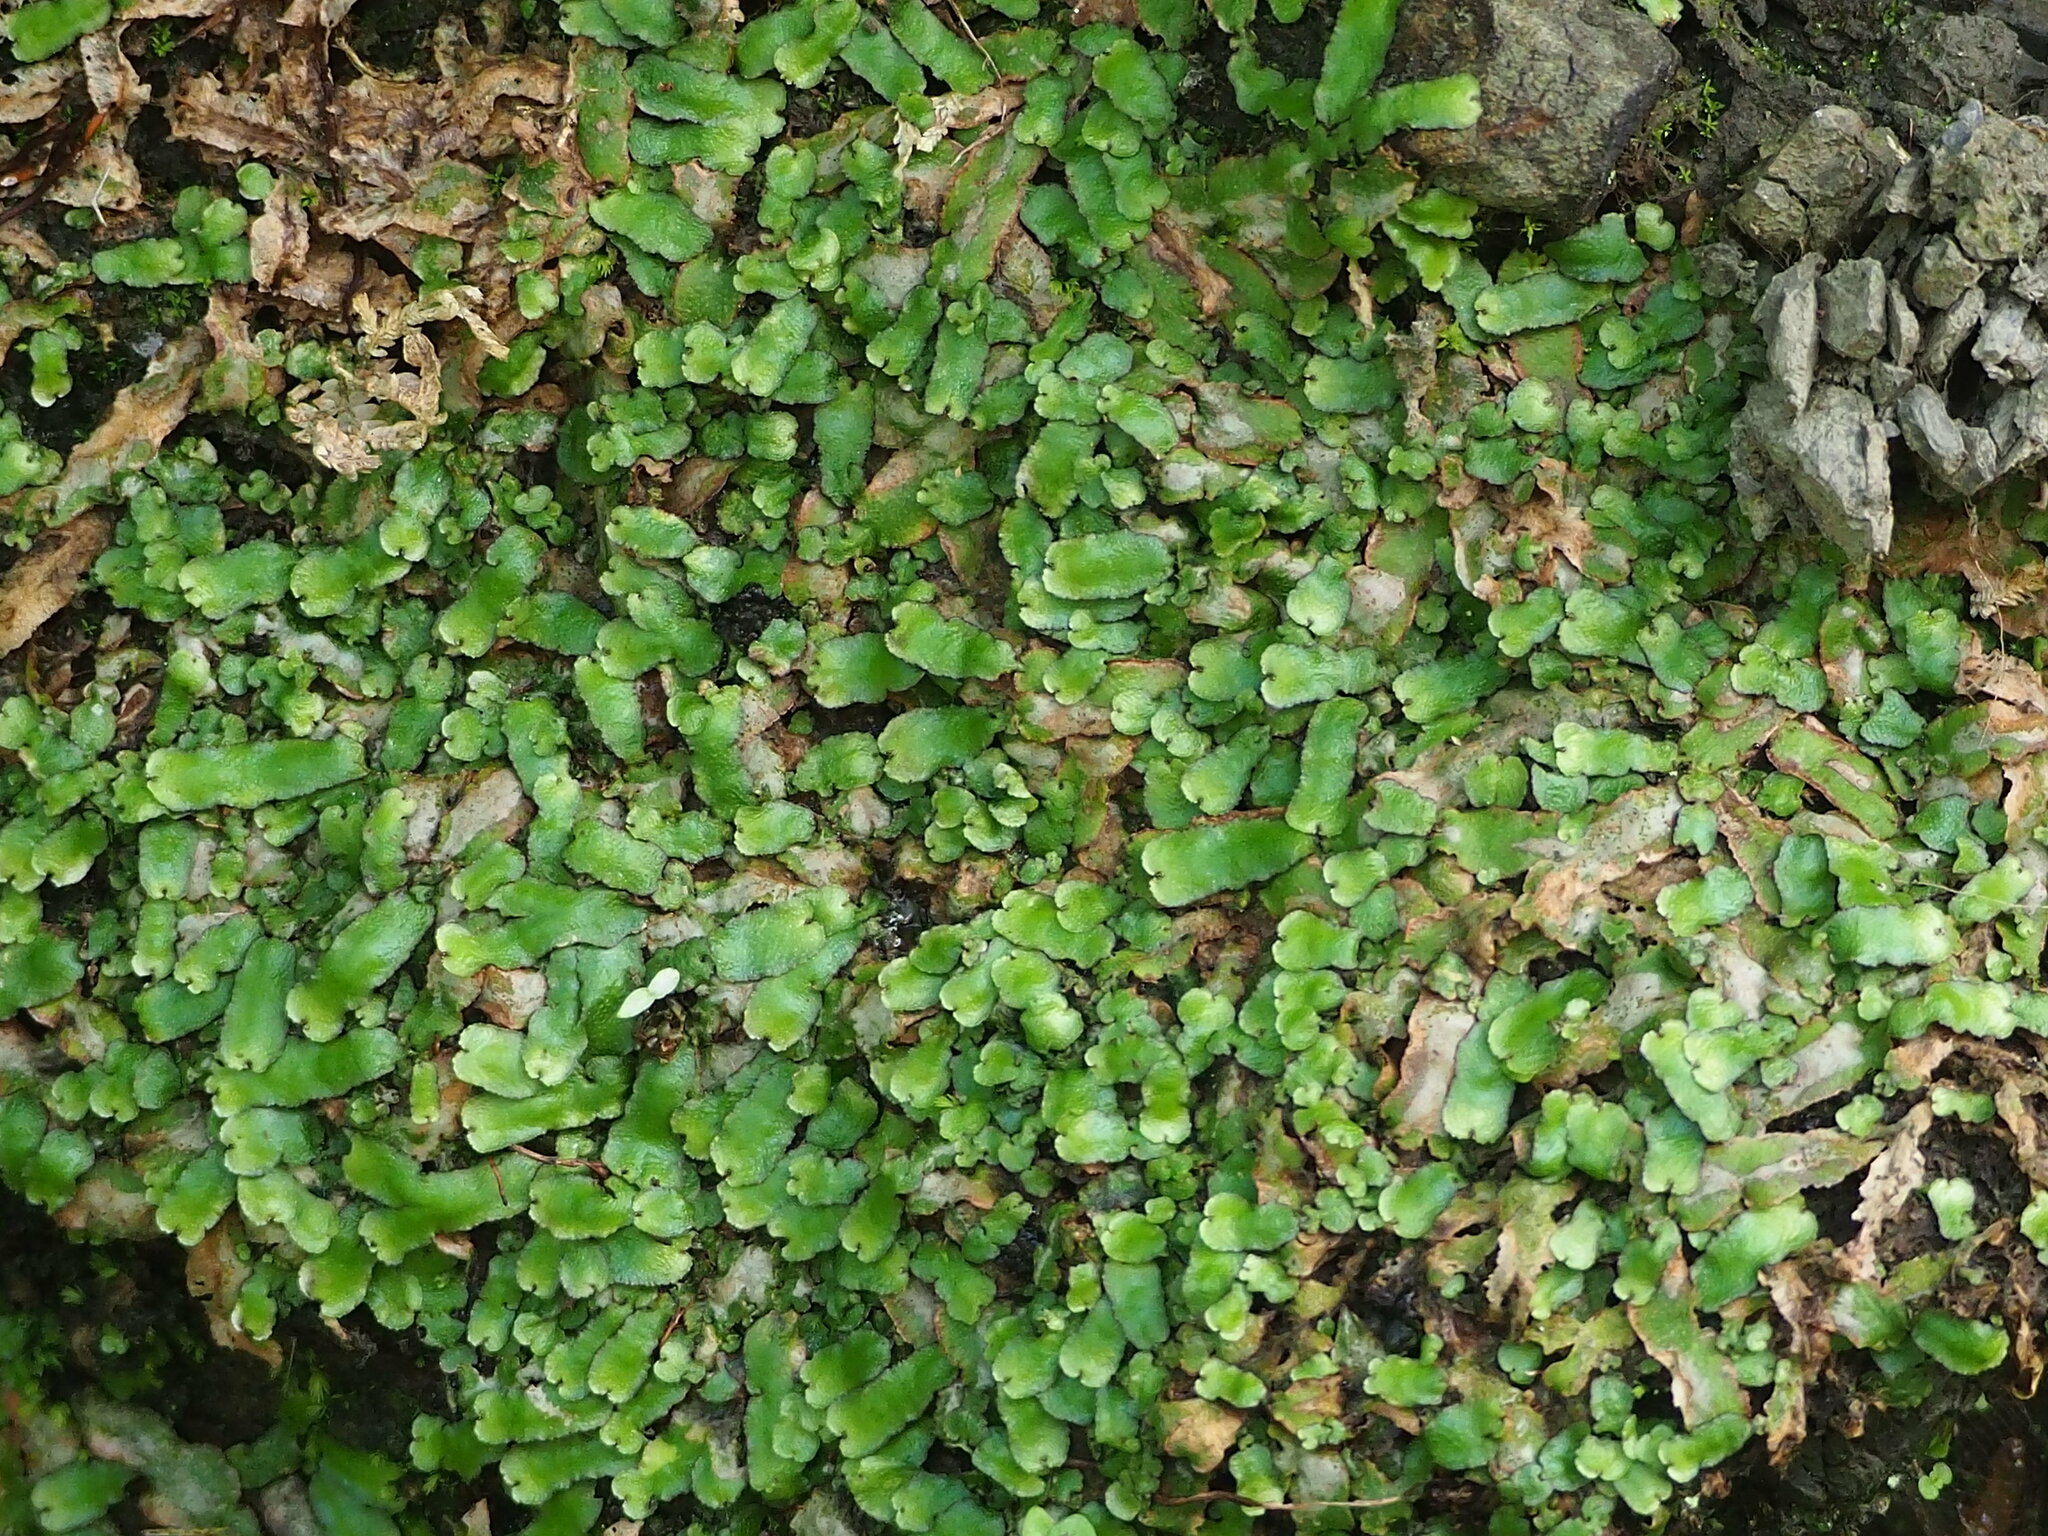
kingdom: Plantae
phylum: Marchantiophyta
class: Marchantiopsida
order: Marchantiales
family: Aytoniaceae
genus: Reboulia
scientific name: Reboulia hemisphaerica
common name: Purple-margined liverwort
